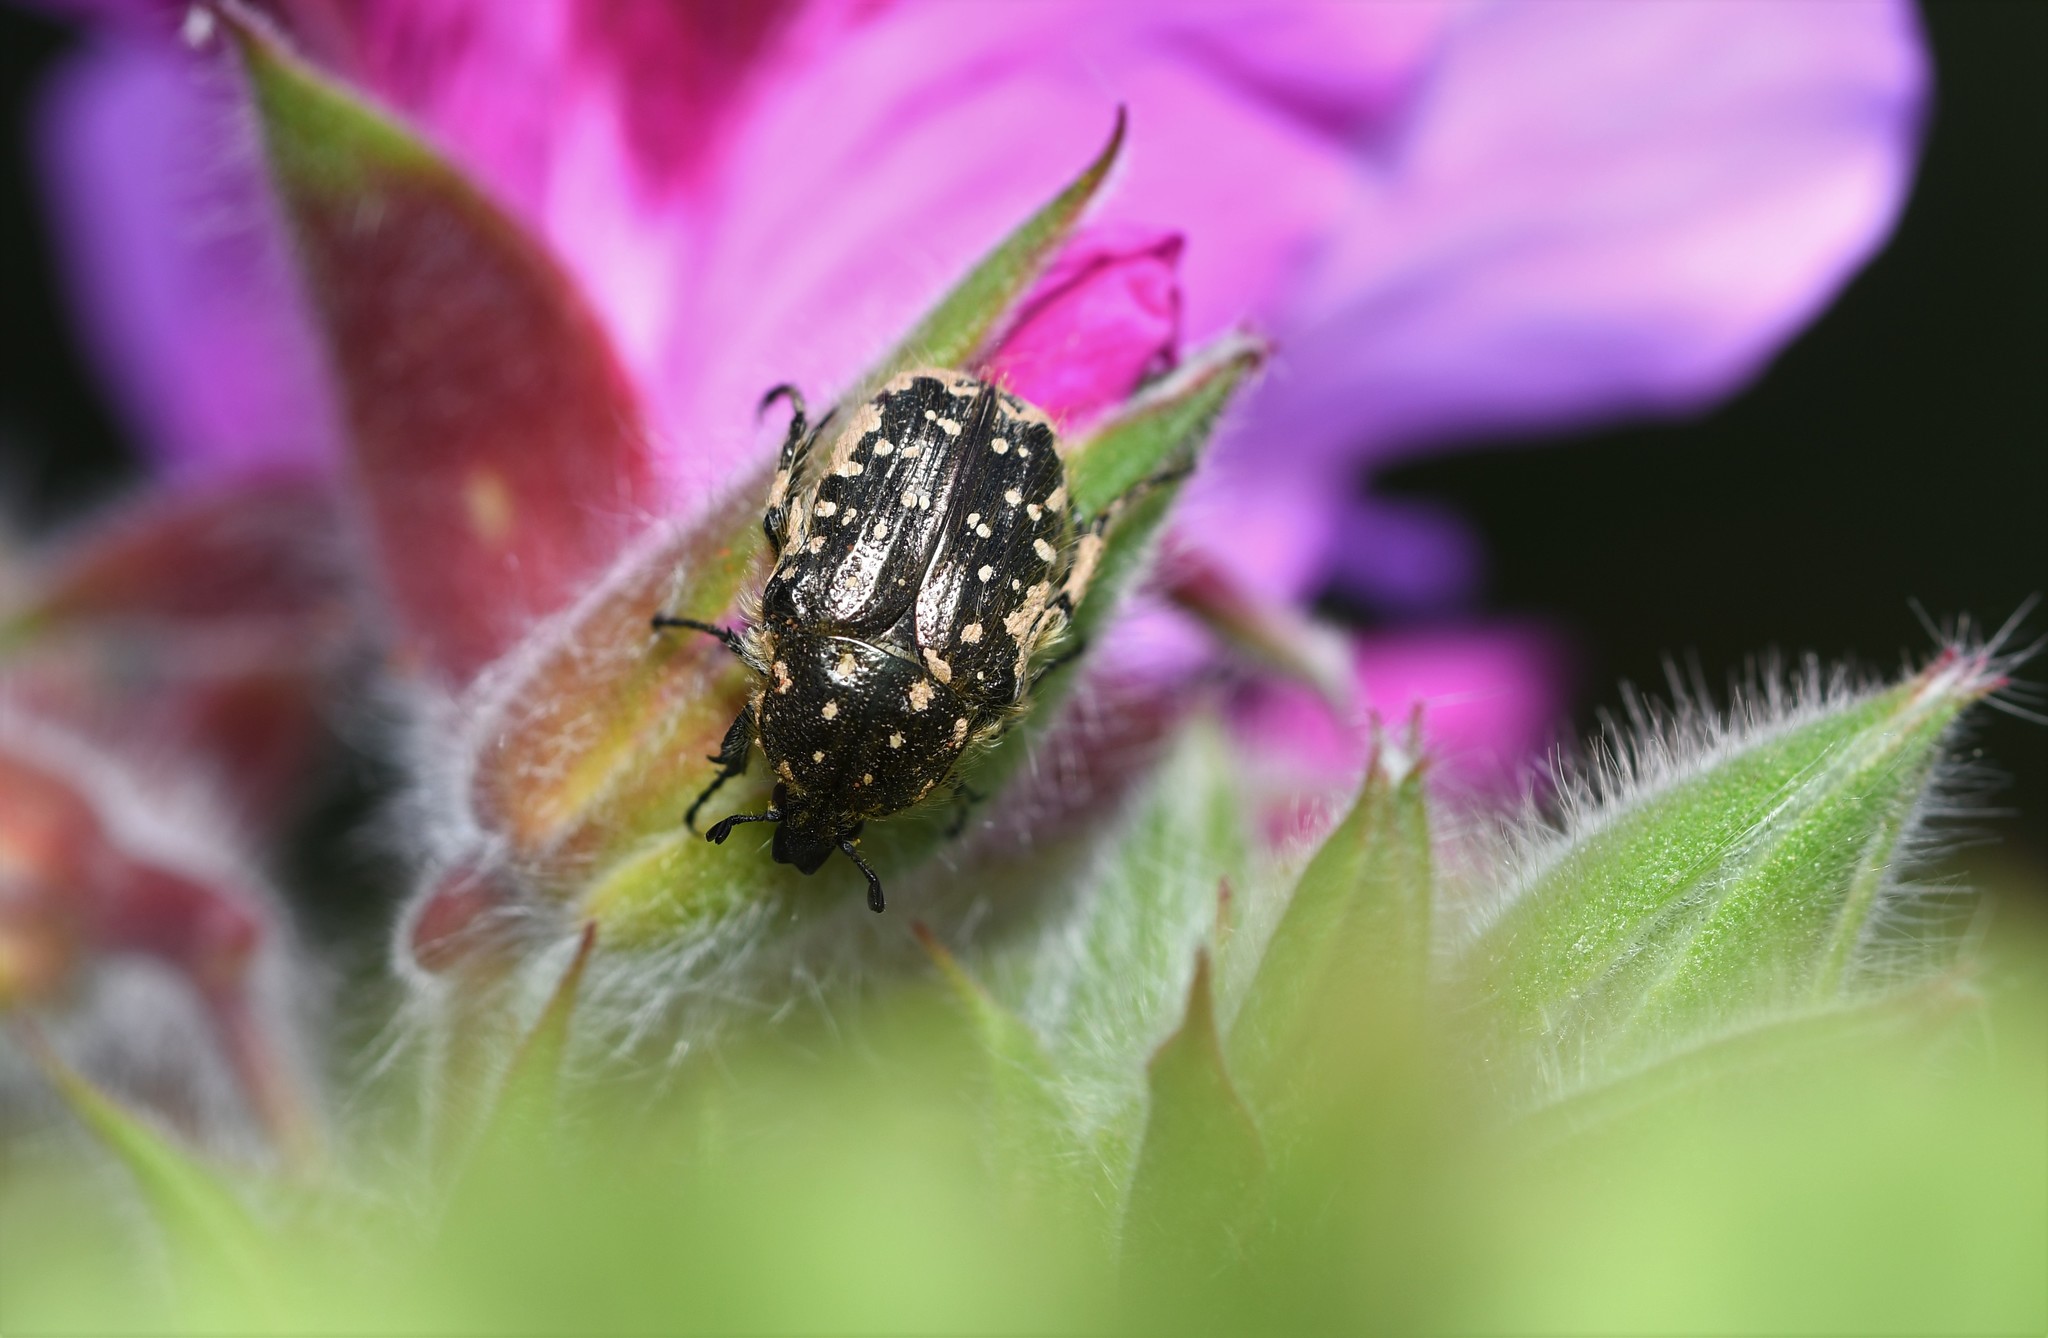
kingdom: Animalia
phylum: Arthropoda
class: Insecta
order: Coleoptera
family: Scarabaeidae
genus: Oxythyrea
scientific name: Oxythyrea funesta
